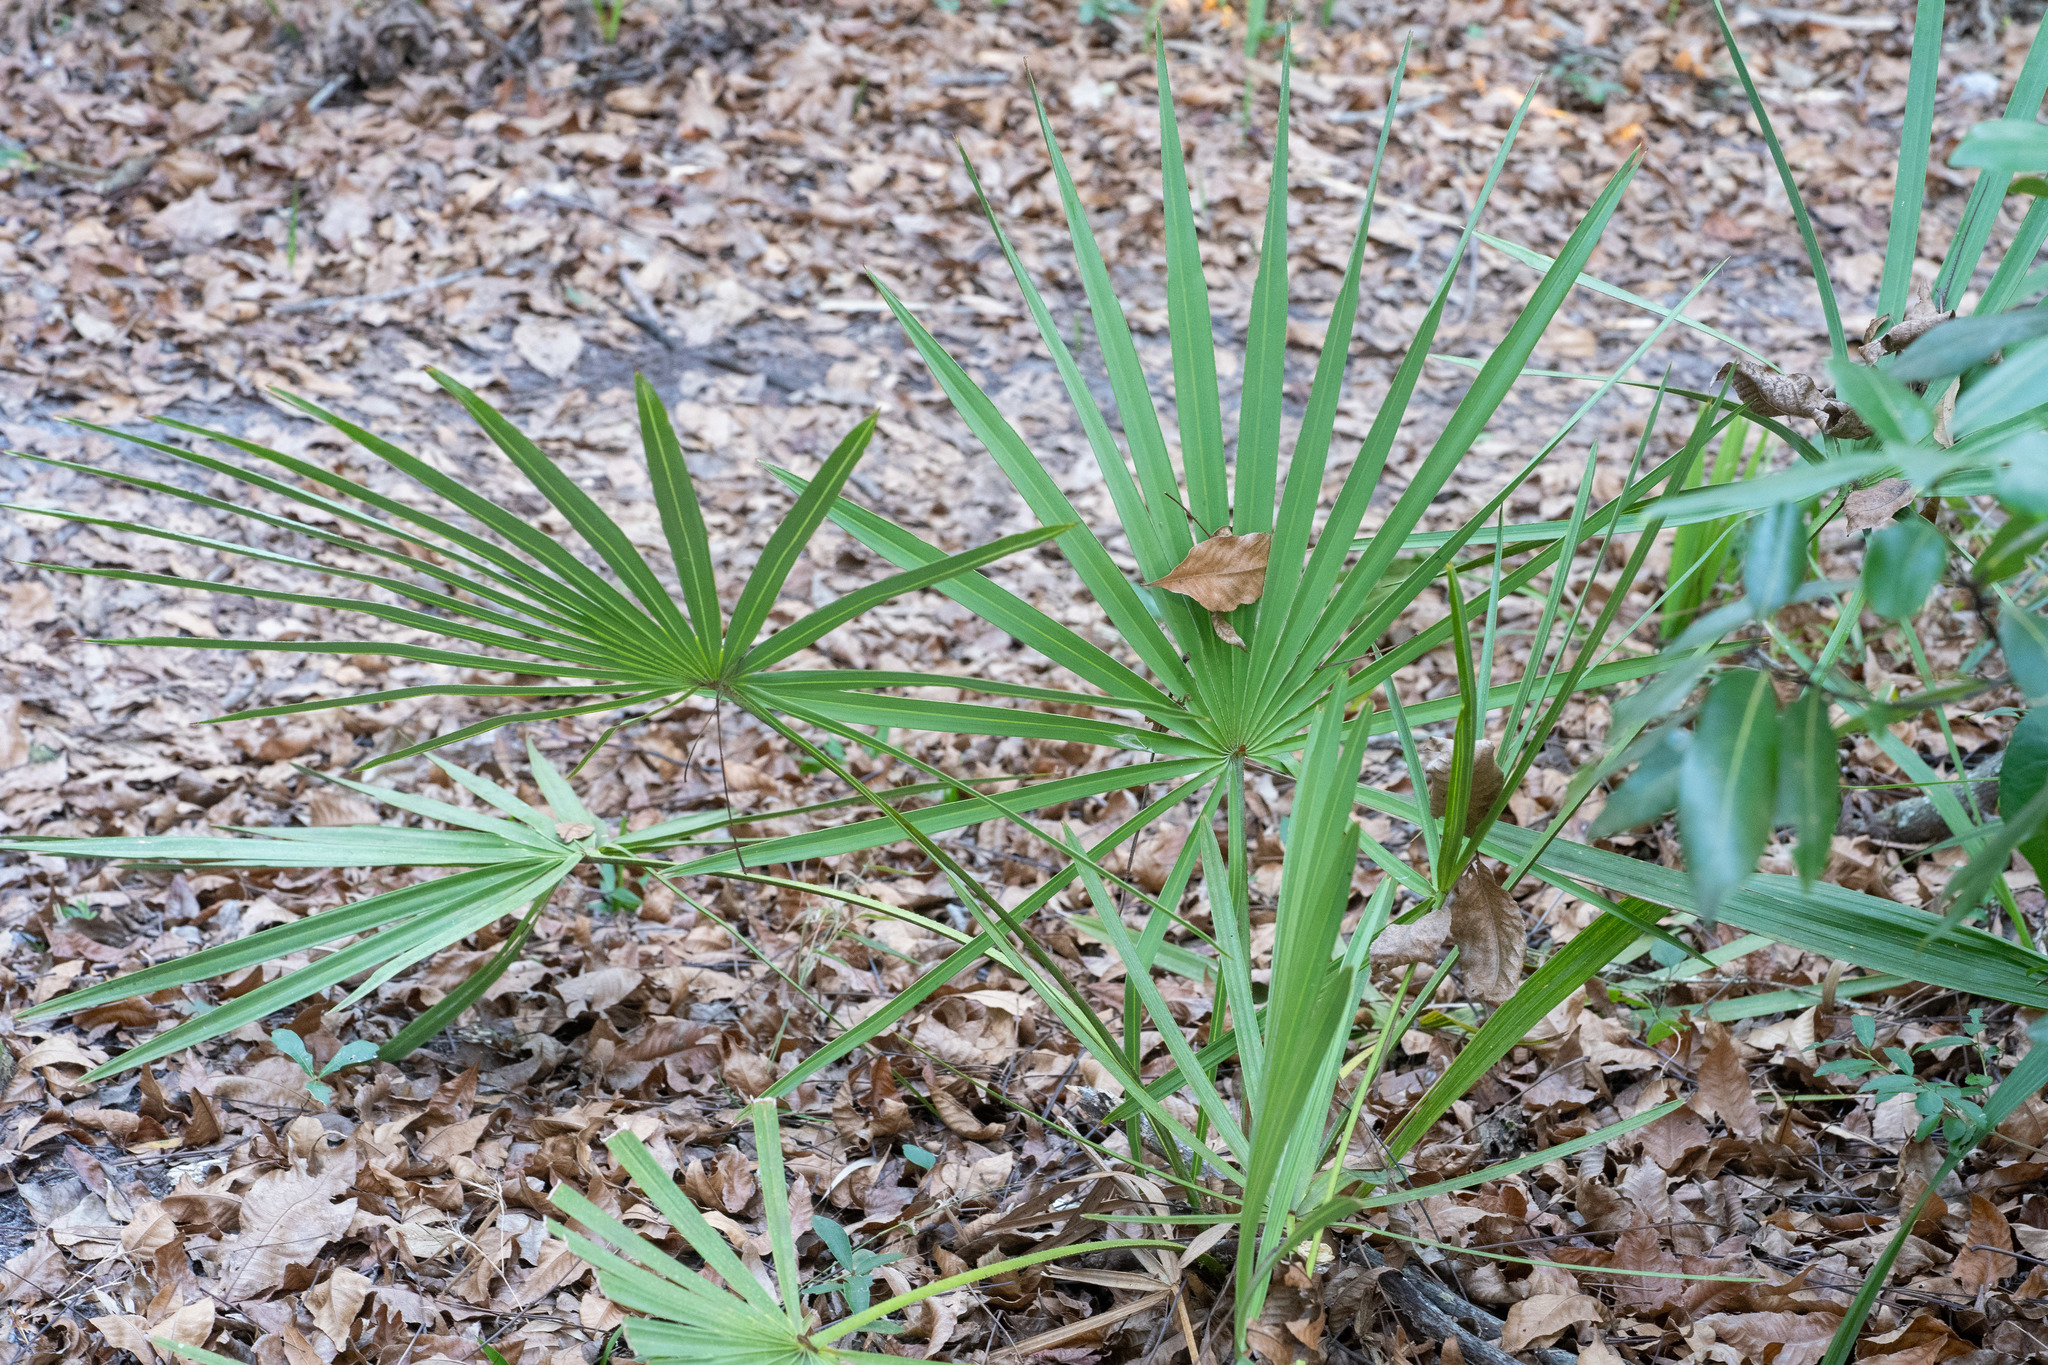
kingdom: Plantae
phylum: Tracheophyta
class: Liliopsida
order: Arecales
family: Arecaceae
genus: Serenoa
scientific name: Serenoa repens
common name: Saw-palmetto
